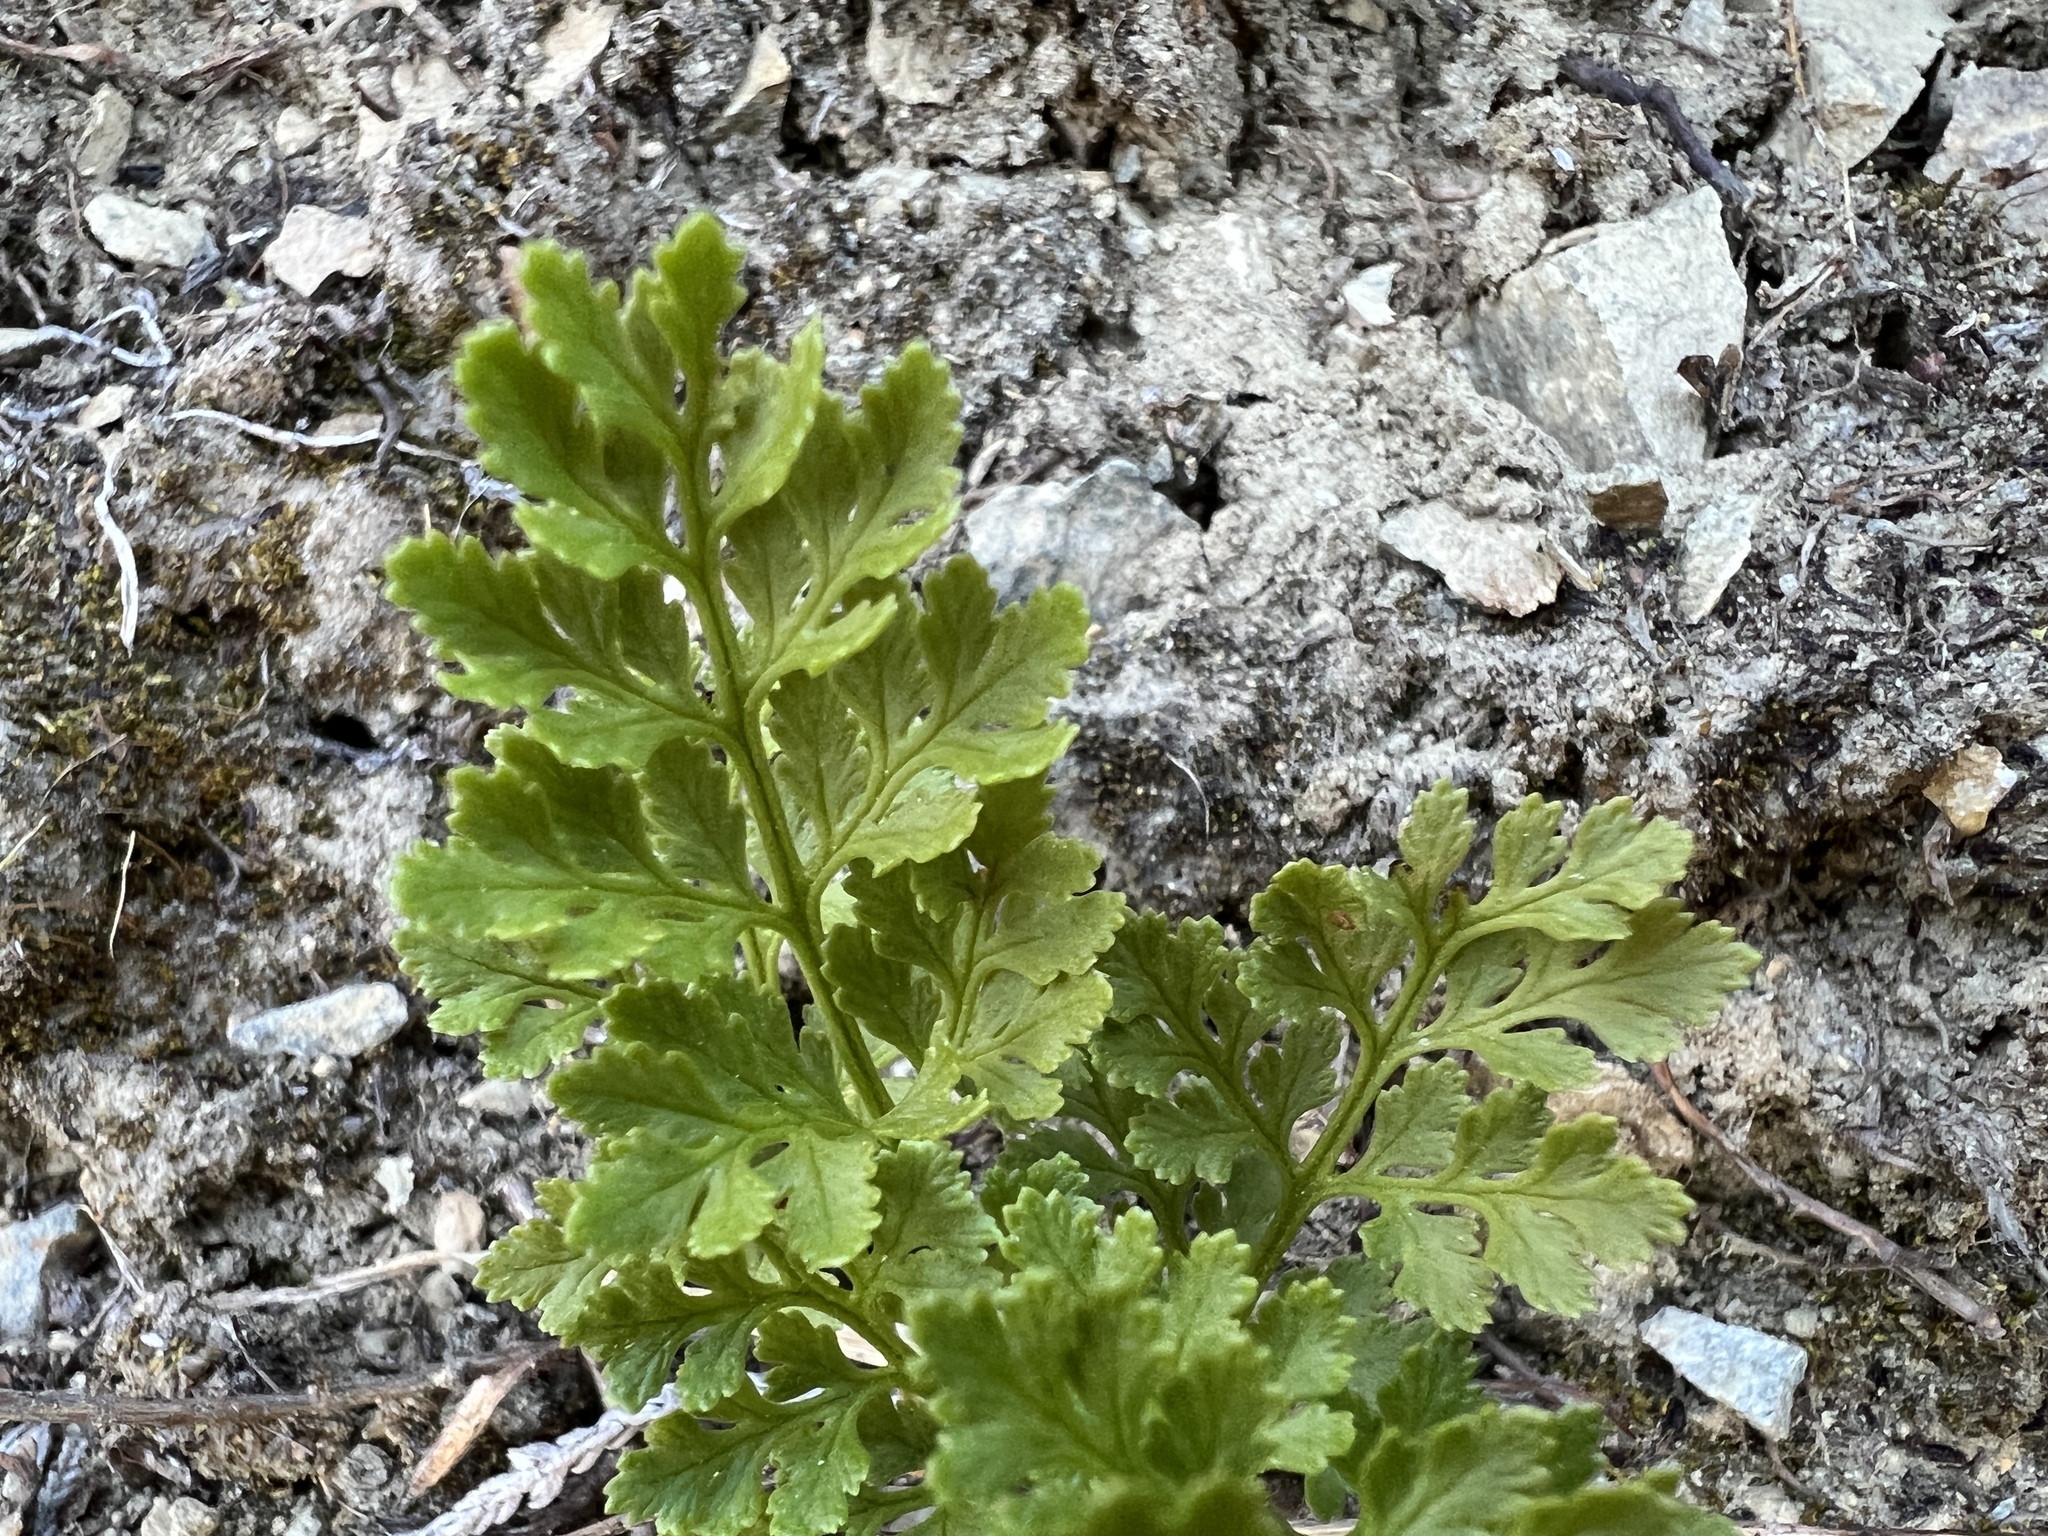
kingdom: Plantae
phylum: Tracheophyta
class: Polypodiopsida
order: Polypodiales
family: Pteridaceae
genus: Cryptogramma
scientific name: Cryptogramma acrostichoides
